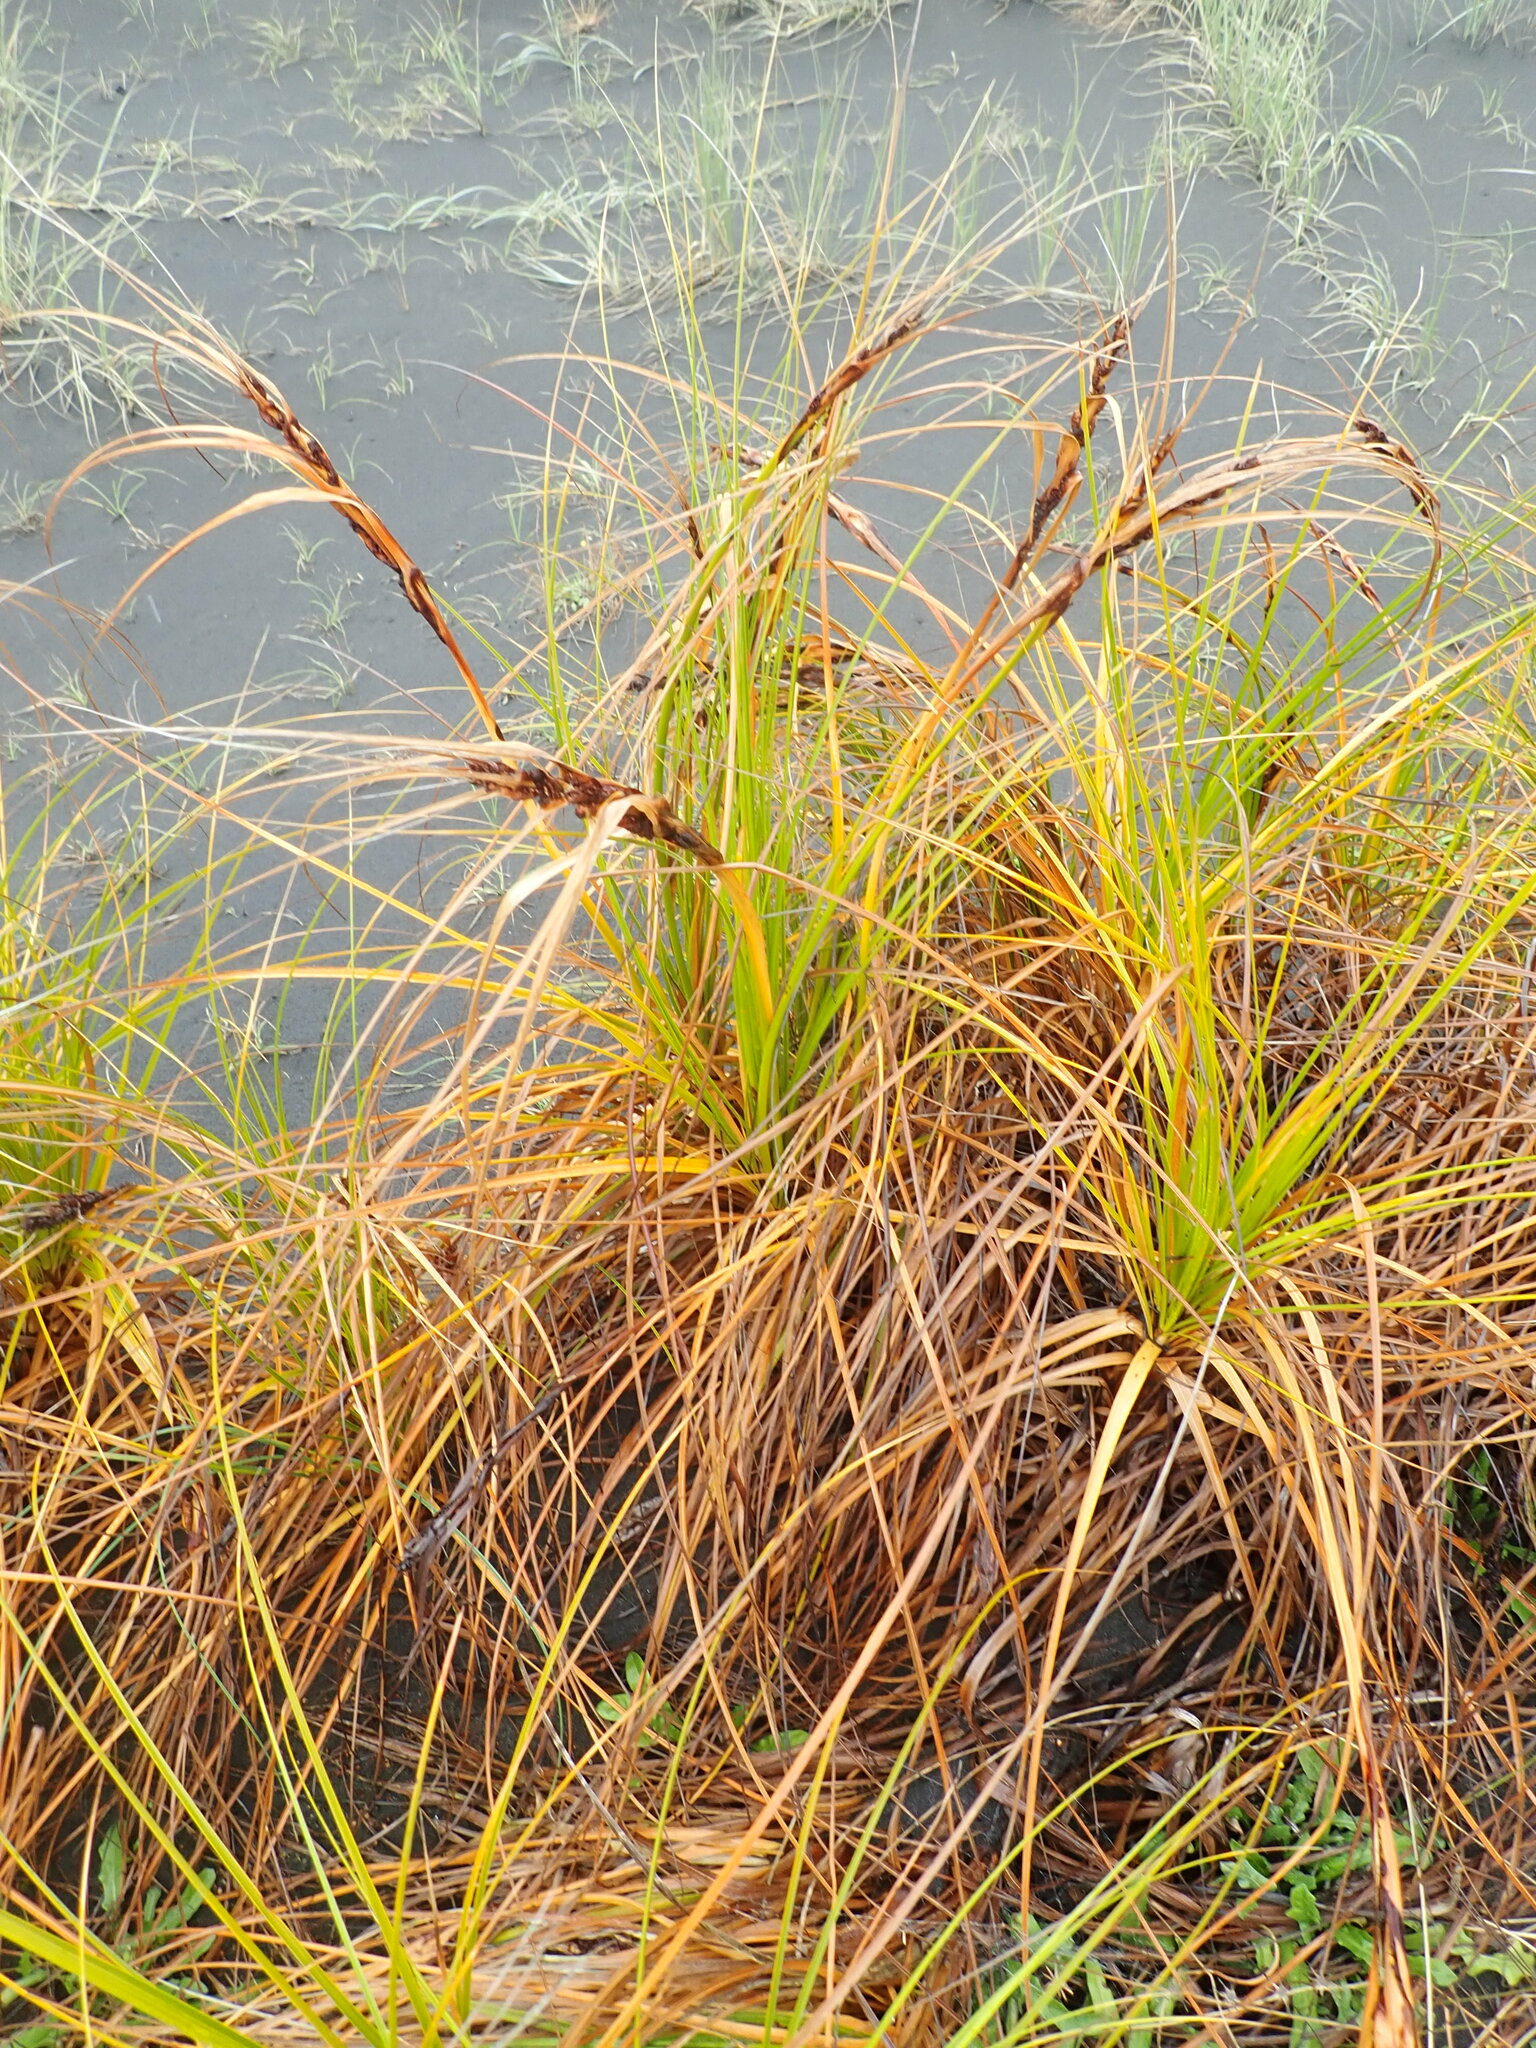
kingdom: Plantae
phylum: Tracheophyta
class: Liliopsida
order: Poales
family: Cyperaceae
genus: Ficinia
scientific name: Ficinia spiralis
